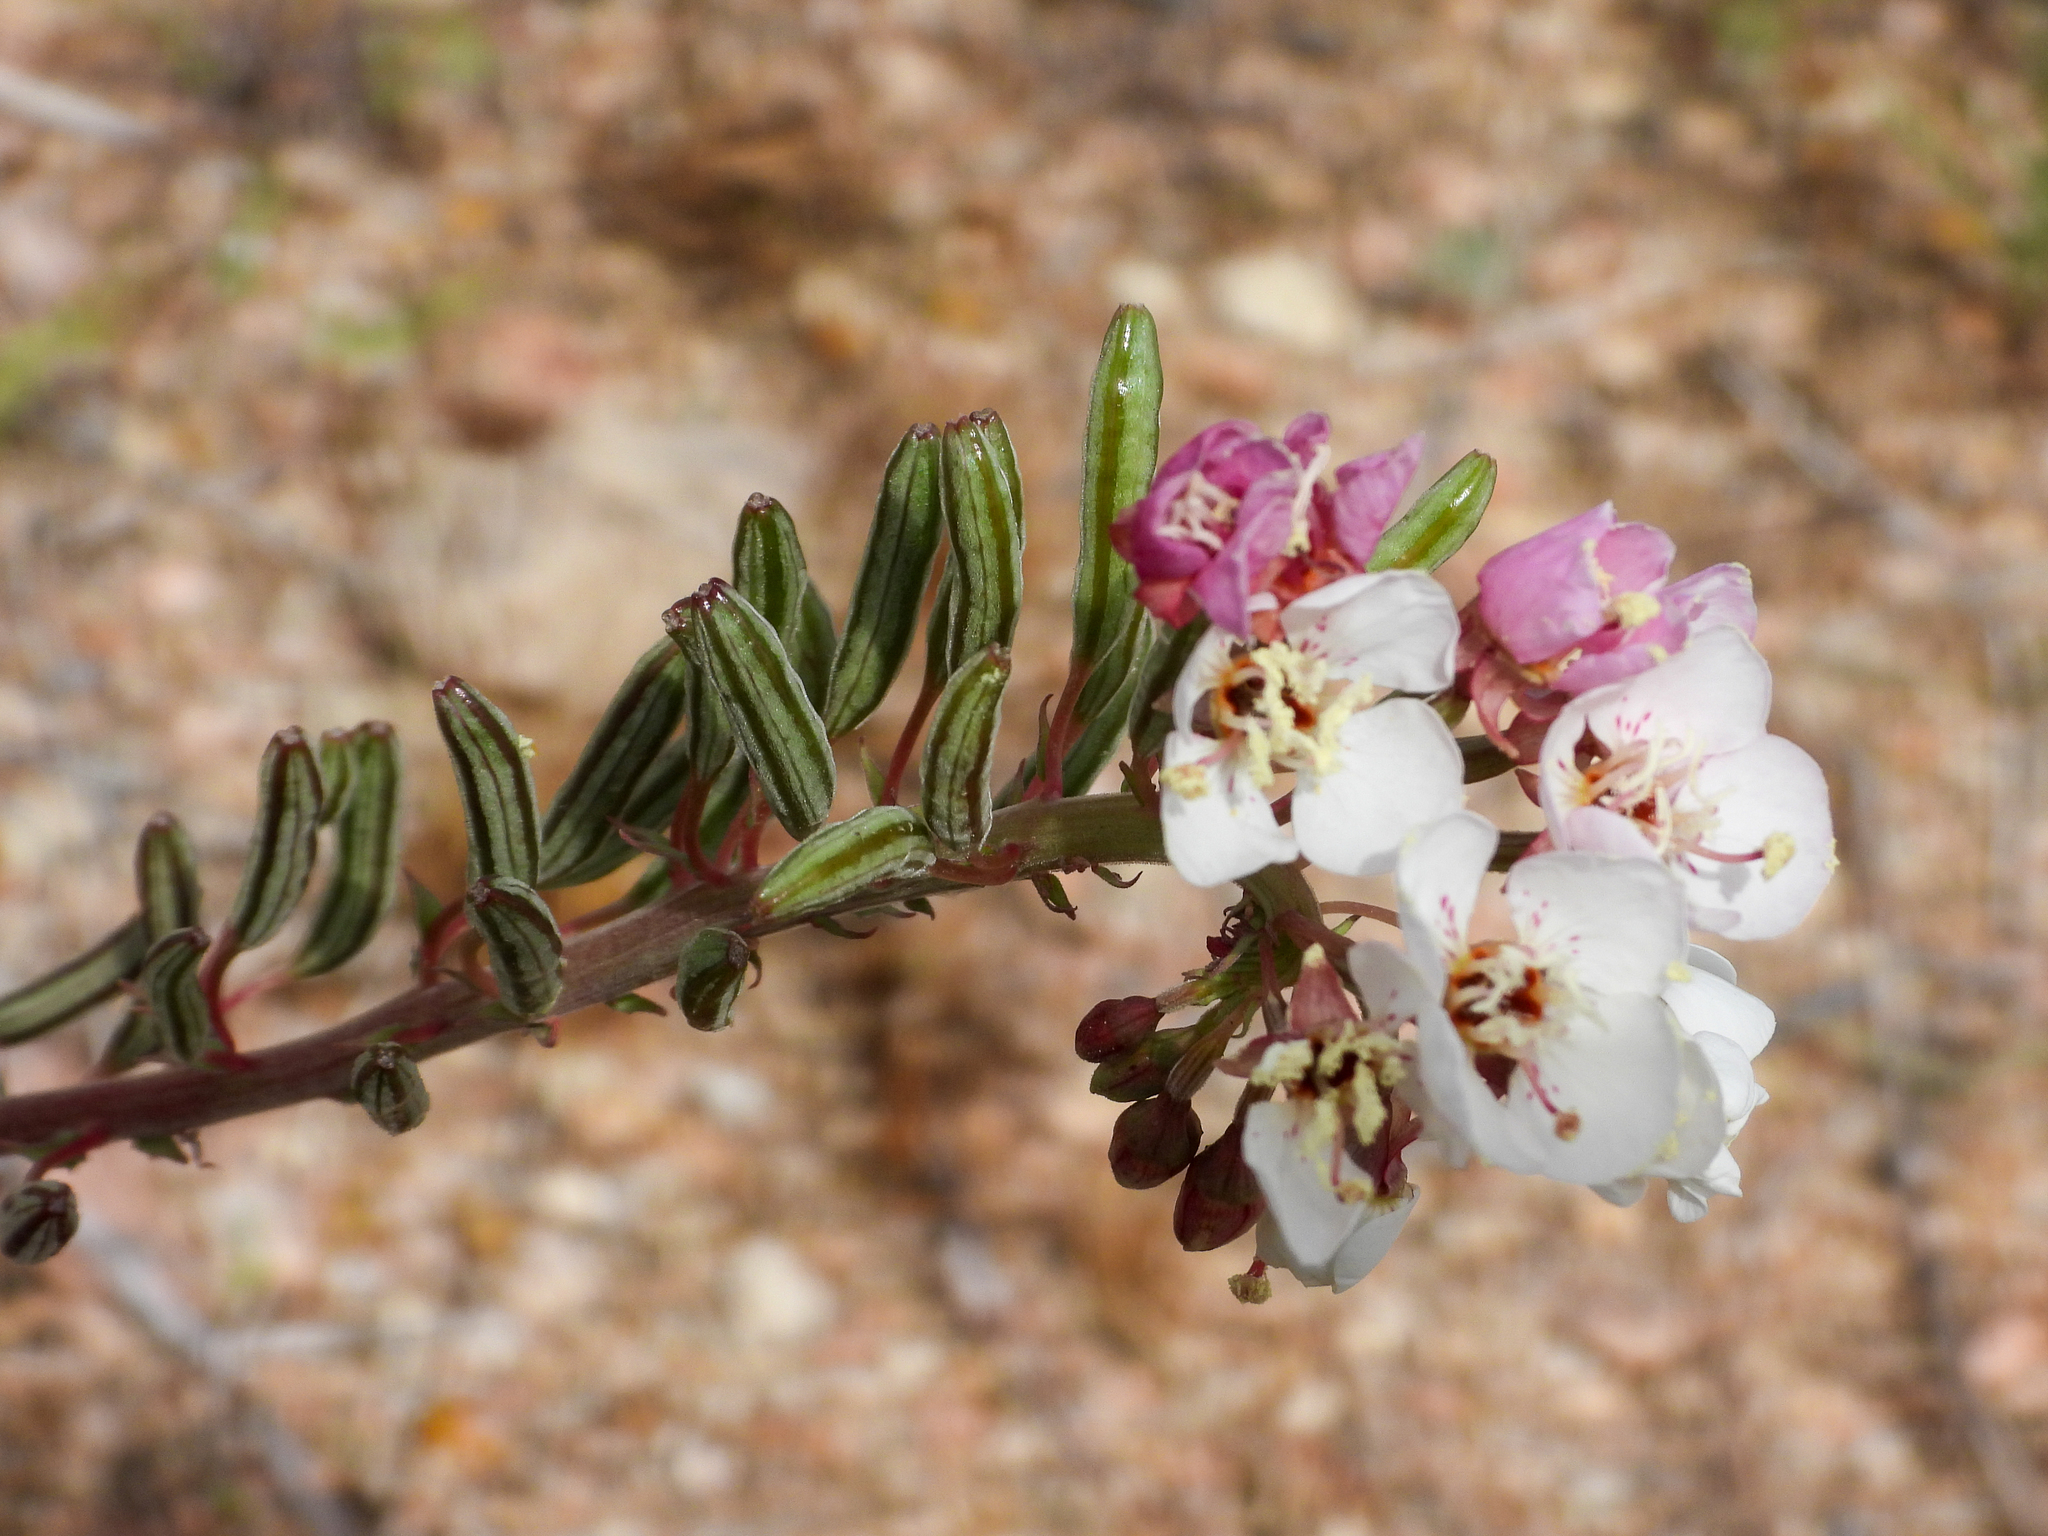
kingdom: Plantae
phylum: Tracheophyta
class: Magnoliopsida
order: Myrtales
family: Onagraceae
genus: Chylismia
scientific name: Chylismia claviformis
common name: Browneyes
